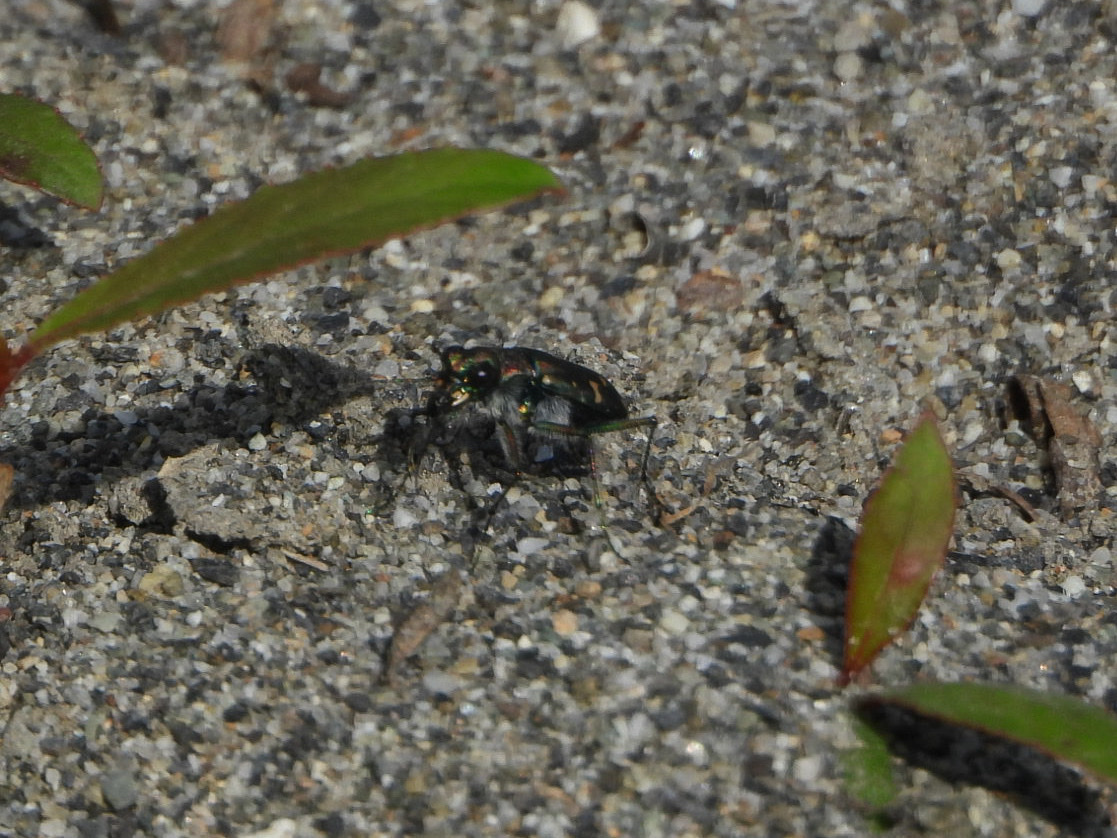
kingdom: Animalia
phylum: Arthropoda
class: Insecta
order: Coleoptera
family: Carabidae
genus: Cicindela
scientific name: Cicindela oregona
